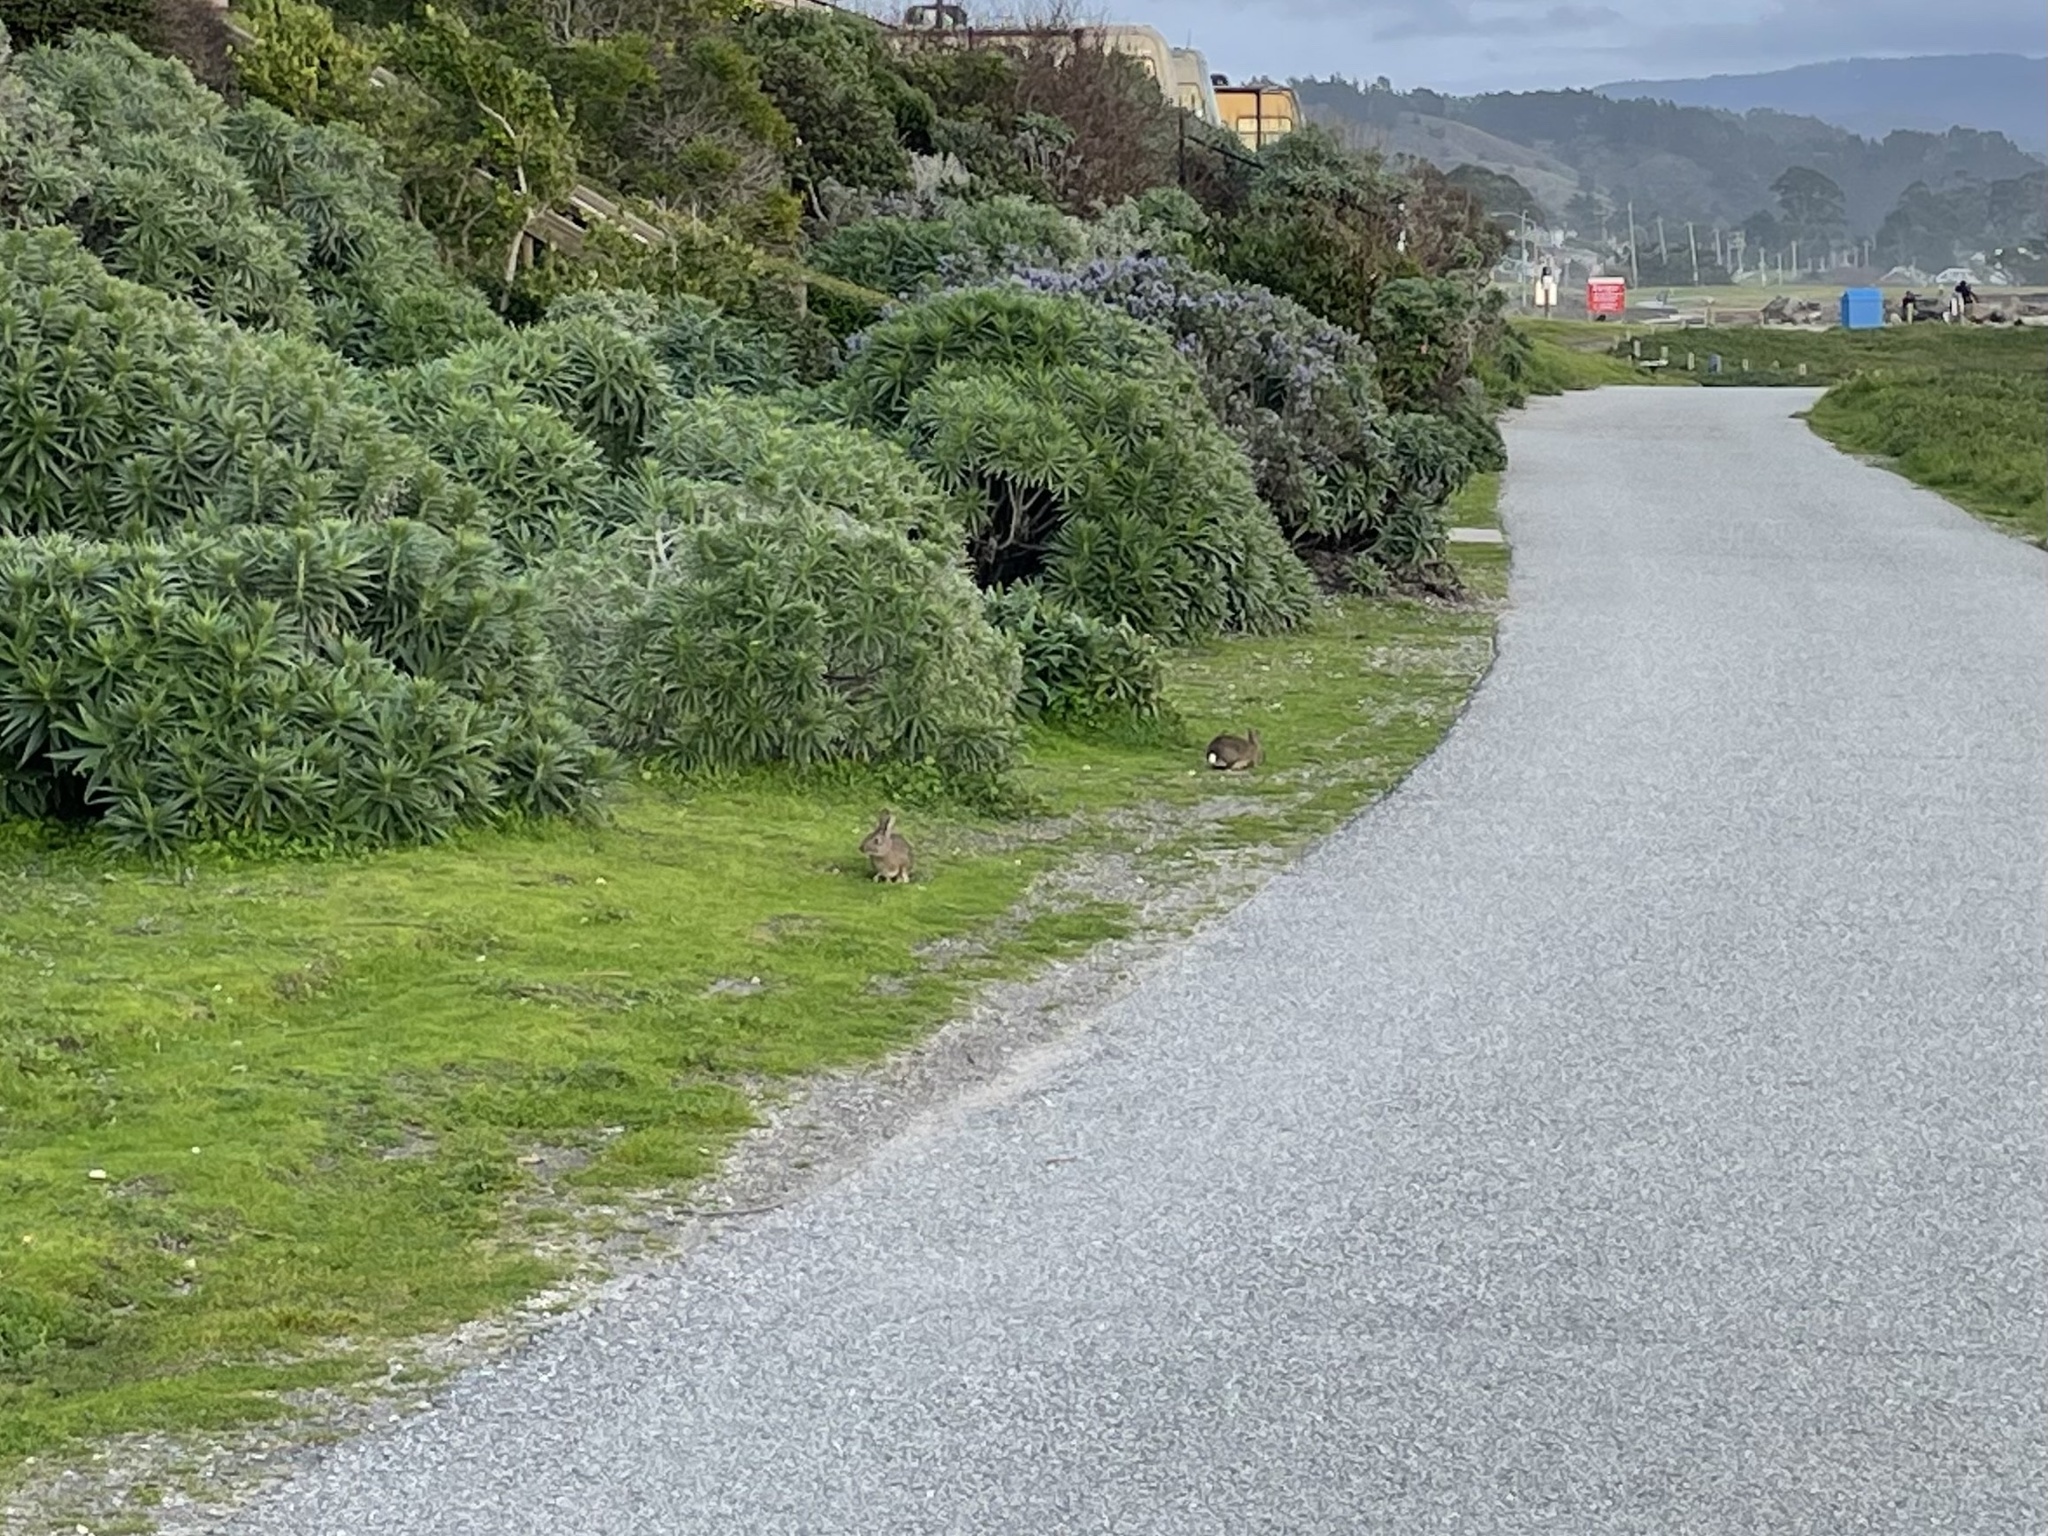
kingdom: Animalia
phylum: Chordata
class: Mammalia
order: Lagomorpha
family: Leporidae
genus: Sylvilagus
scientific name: Sylvilagus bachmani
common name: Brush rabbit
